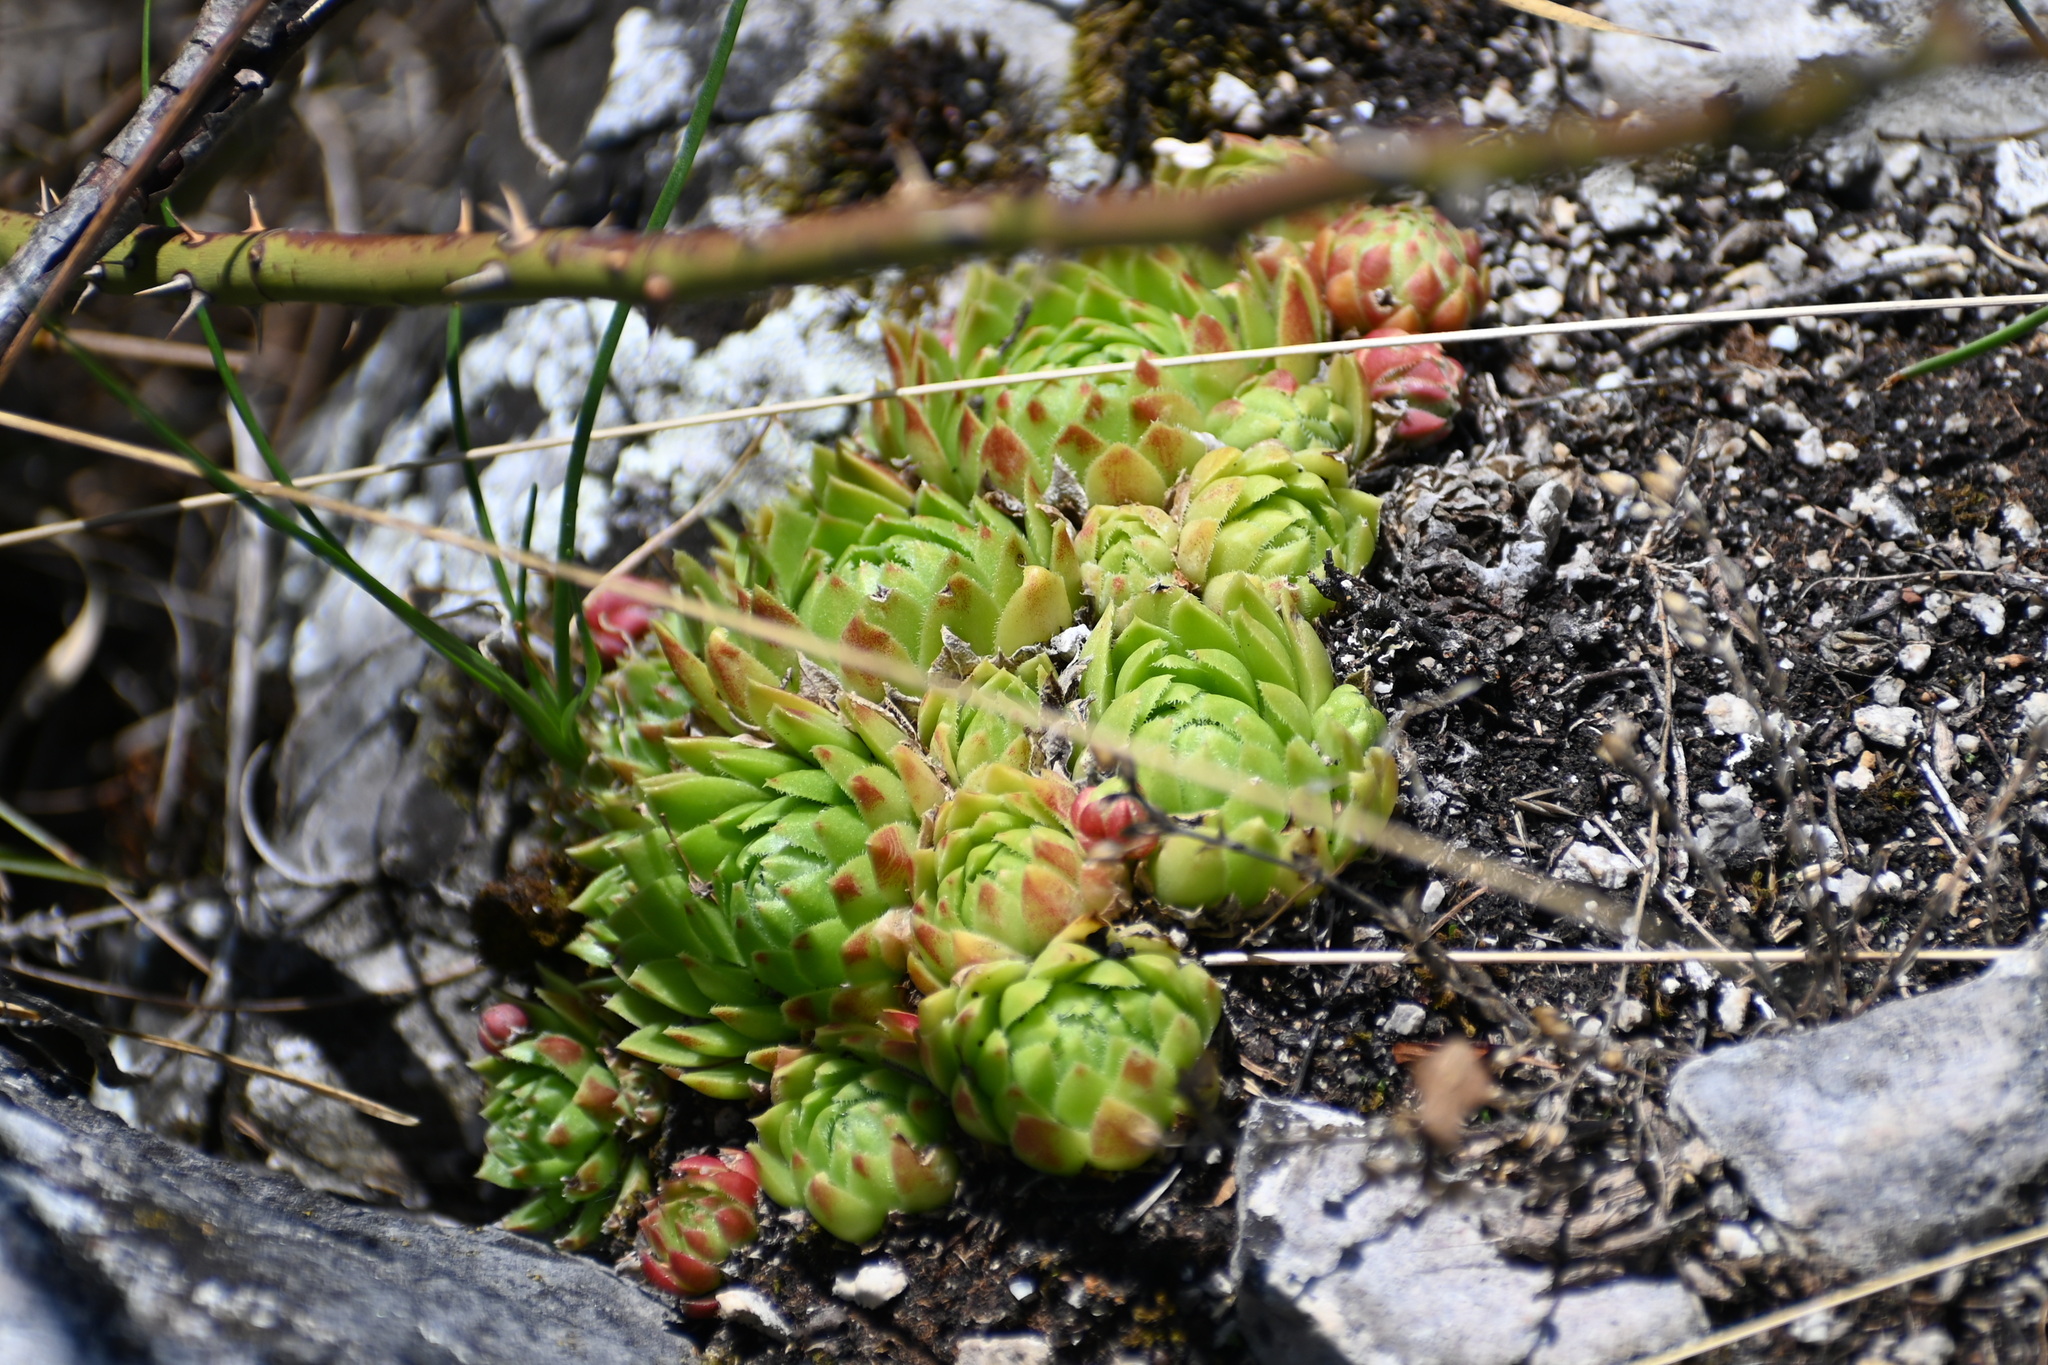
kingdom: Plantae
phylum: Tracheophyta
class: Magnoliopsida
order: Saxifragales
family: Crassulaceae
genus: Sempervivum
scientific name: Sempervivum globiferum
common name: Rolling hen-and-chicks
